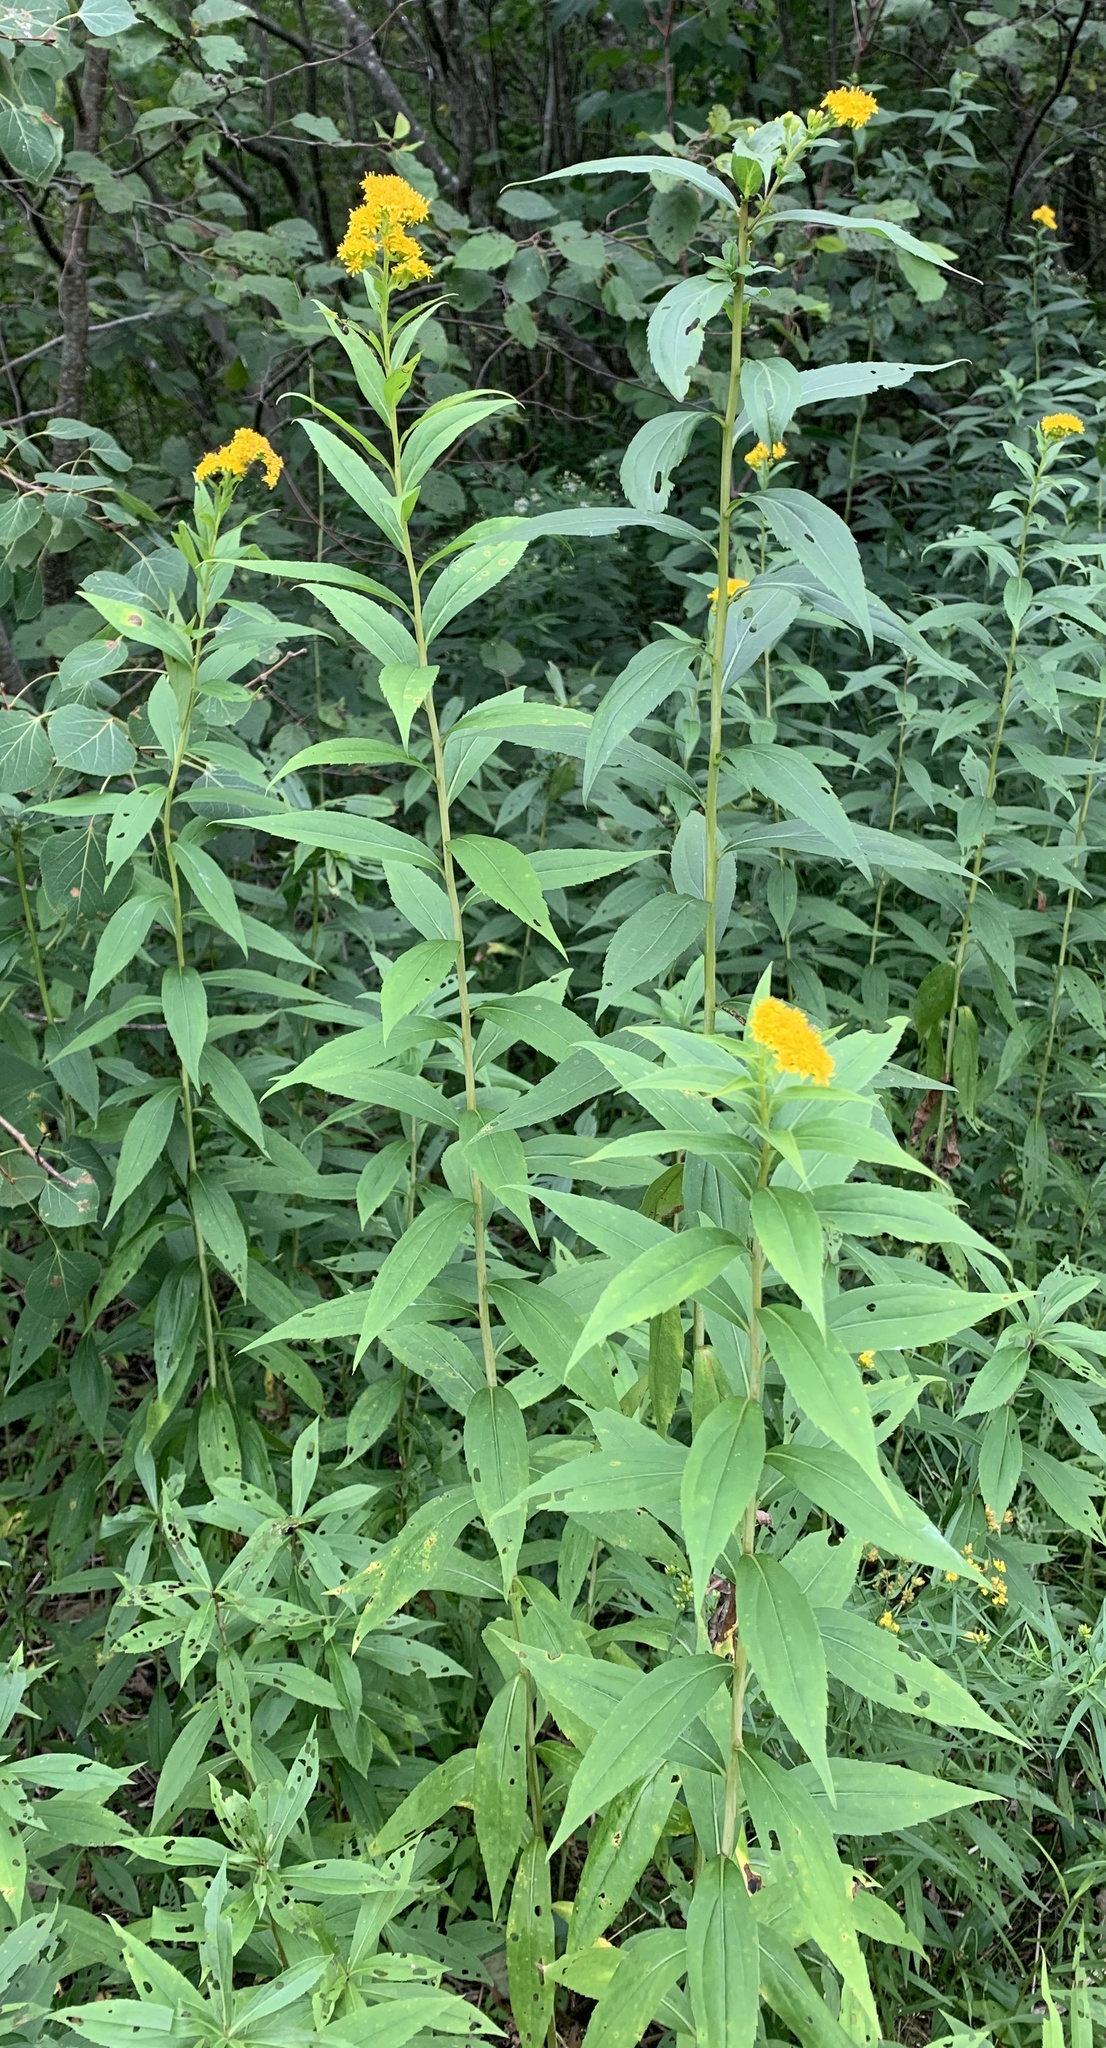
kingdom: Plantae
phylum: Tracheophyta
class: Magnoliopsida
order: Asterales
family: Asteraceae
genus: Solidago
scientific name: Solidago gigantea
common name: Giant goldenrod
